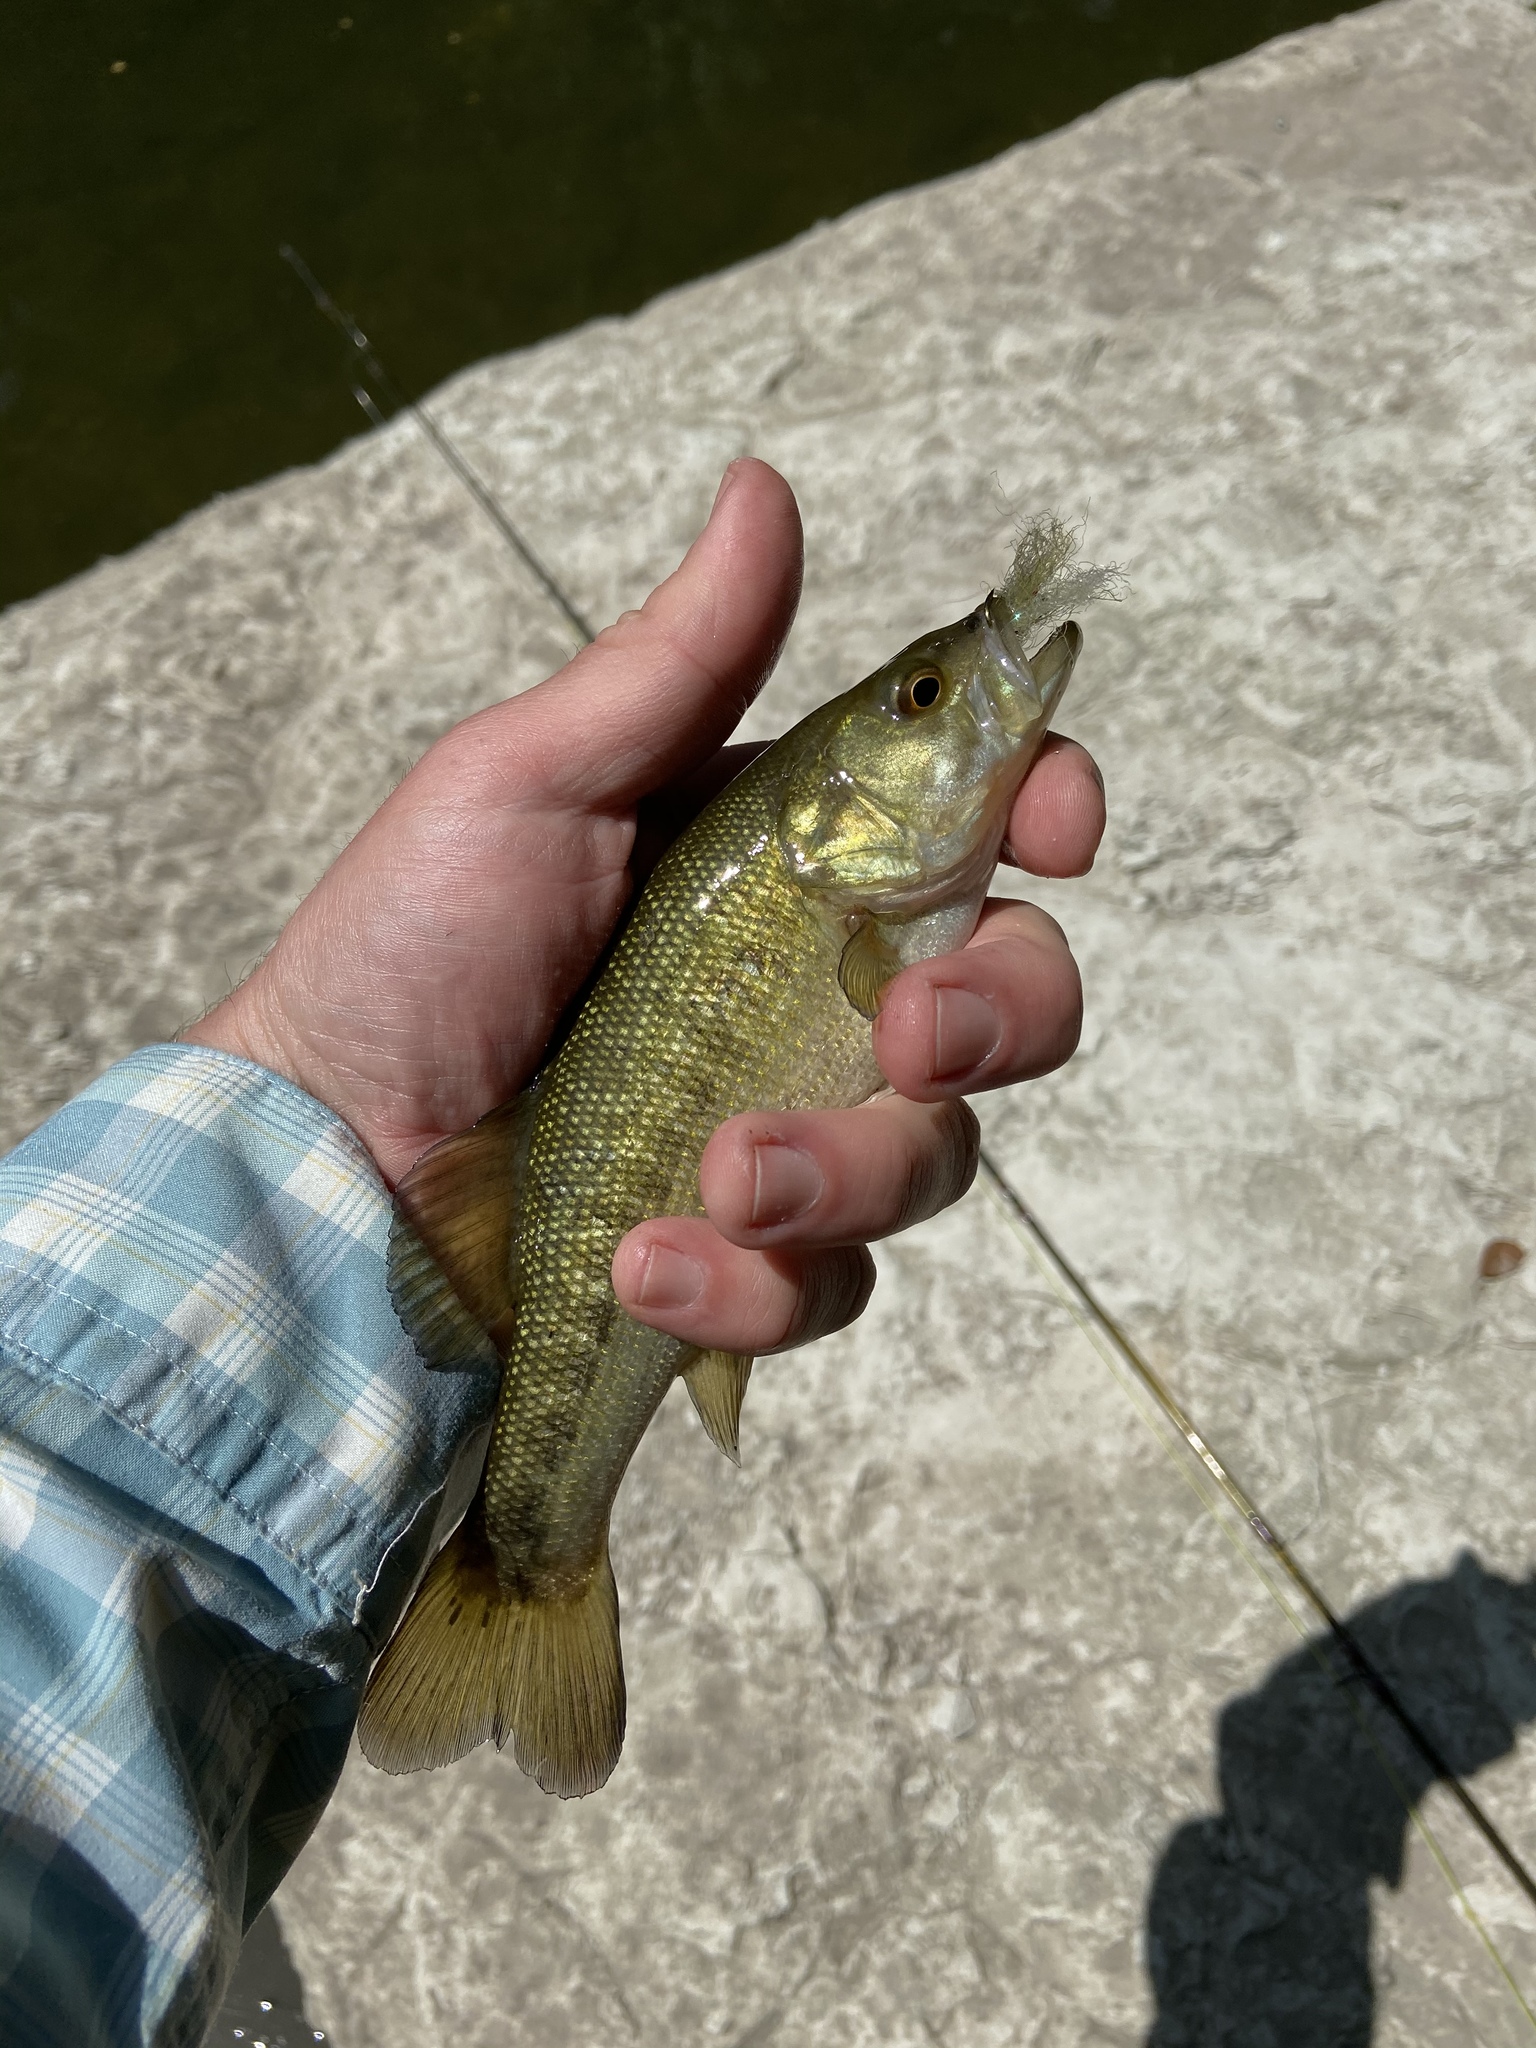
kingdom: Animalia
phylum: Chordata
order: Perciformes
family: Centrarchidae
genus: Micropterus
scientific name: Micropterus treculii
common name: Guadalupe bass
